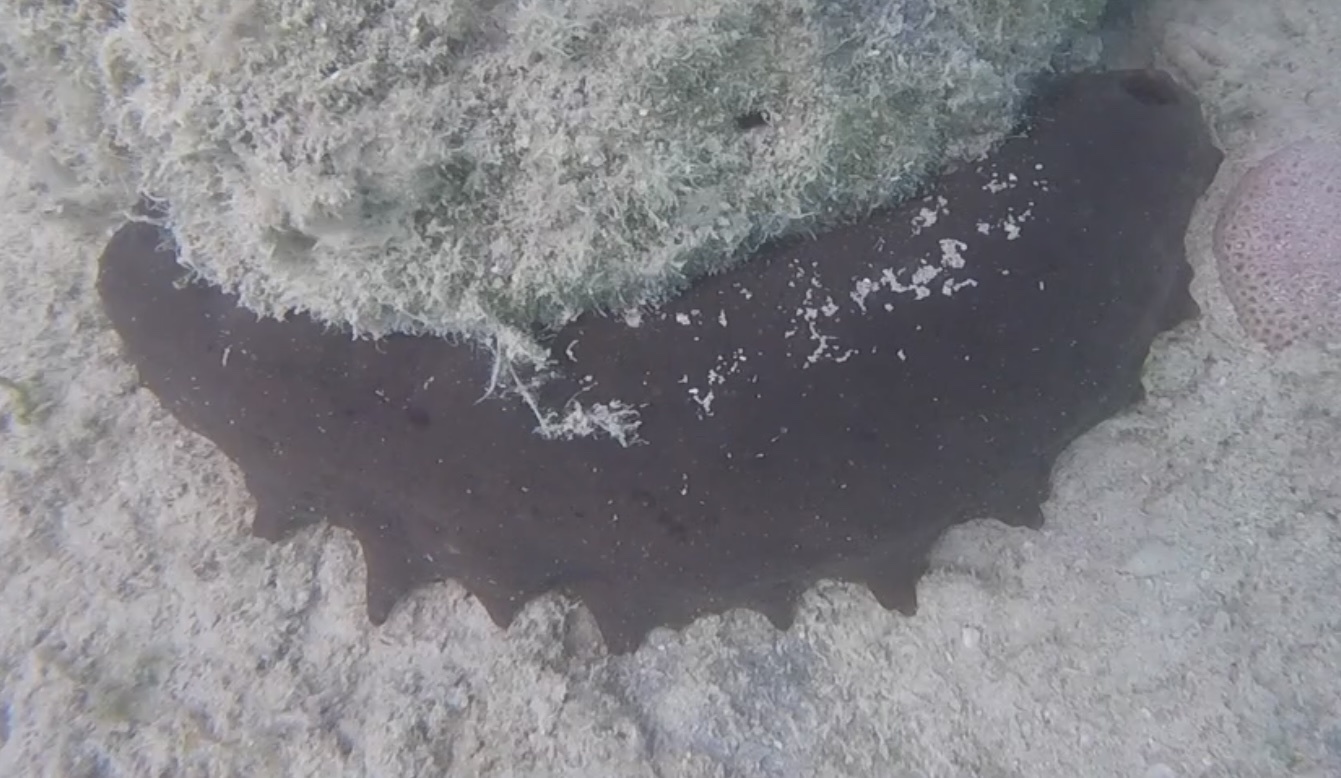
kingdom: Animalia
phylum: Echinodermata
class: Holothuroidea
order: Synallactida
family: Stichopodidae
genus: Isostichopus
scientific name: Isostichopus badionotus
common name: Chocolate chip cucumber
